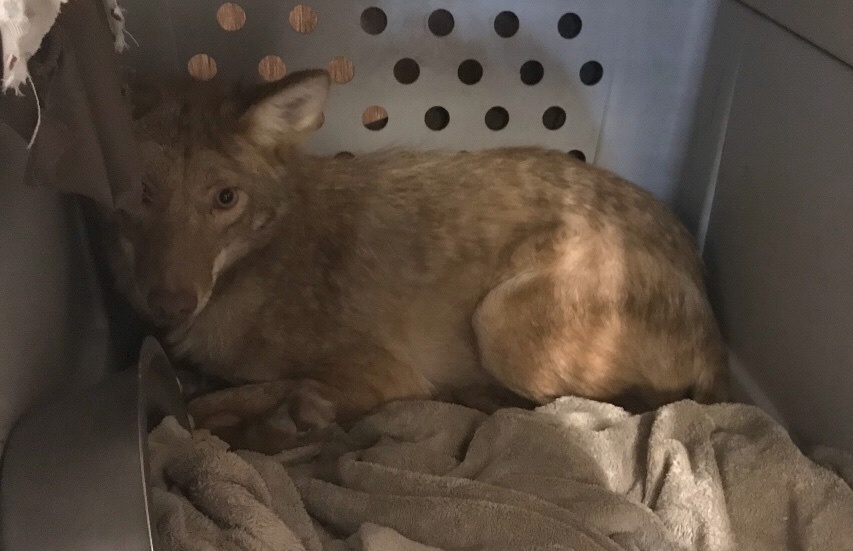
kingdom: Animalia
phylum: Chordata
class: Mammalia
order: Carnivora
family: Canidae
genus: Canis
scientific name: Canis latrans
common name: Coyote
